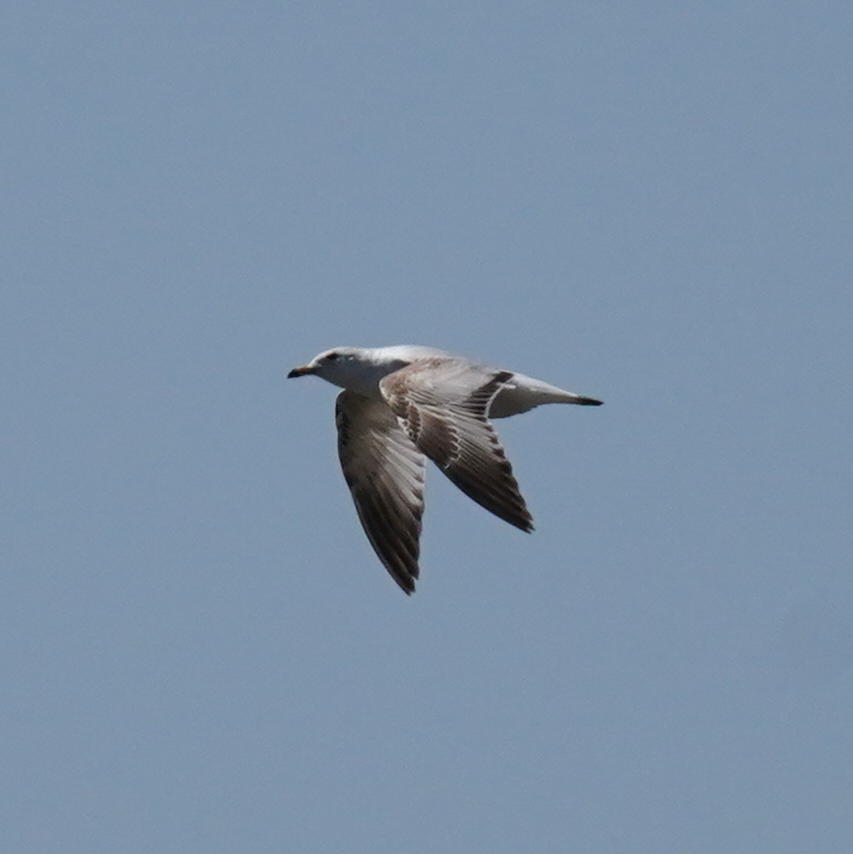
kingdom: Animalia
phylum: Chordata
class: Aves
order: Charadriiformes
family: Laridae
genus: Larus
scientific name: Larus delawarensis
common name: Ring-billed gull
